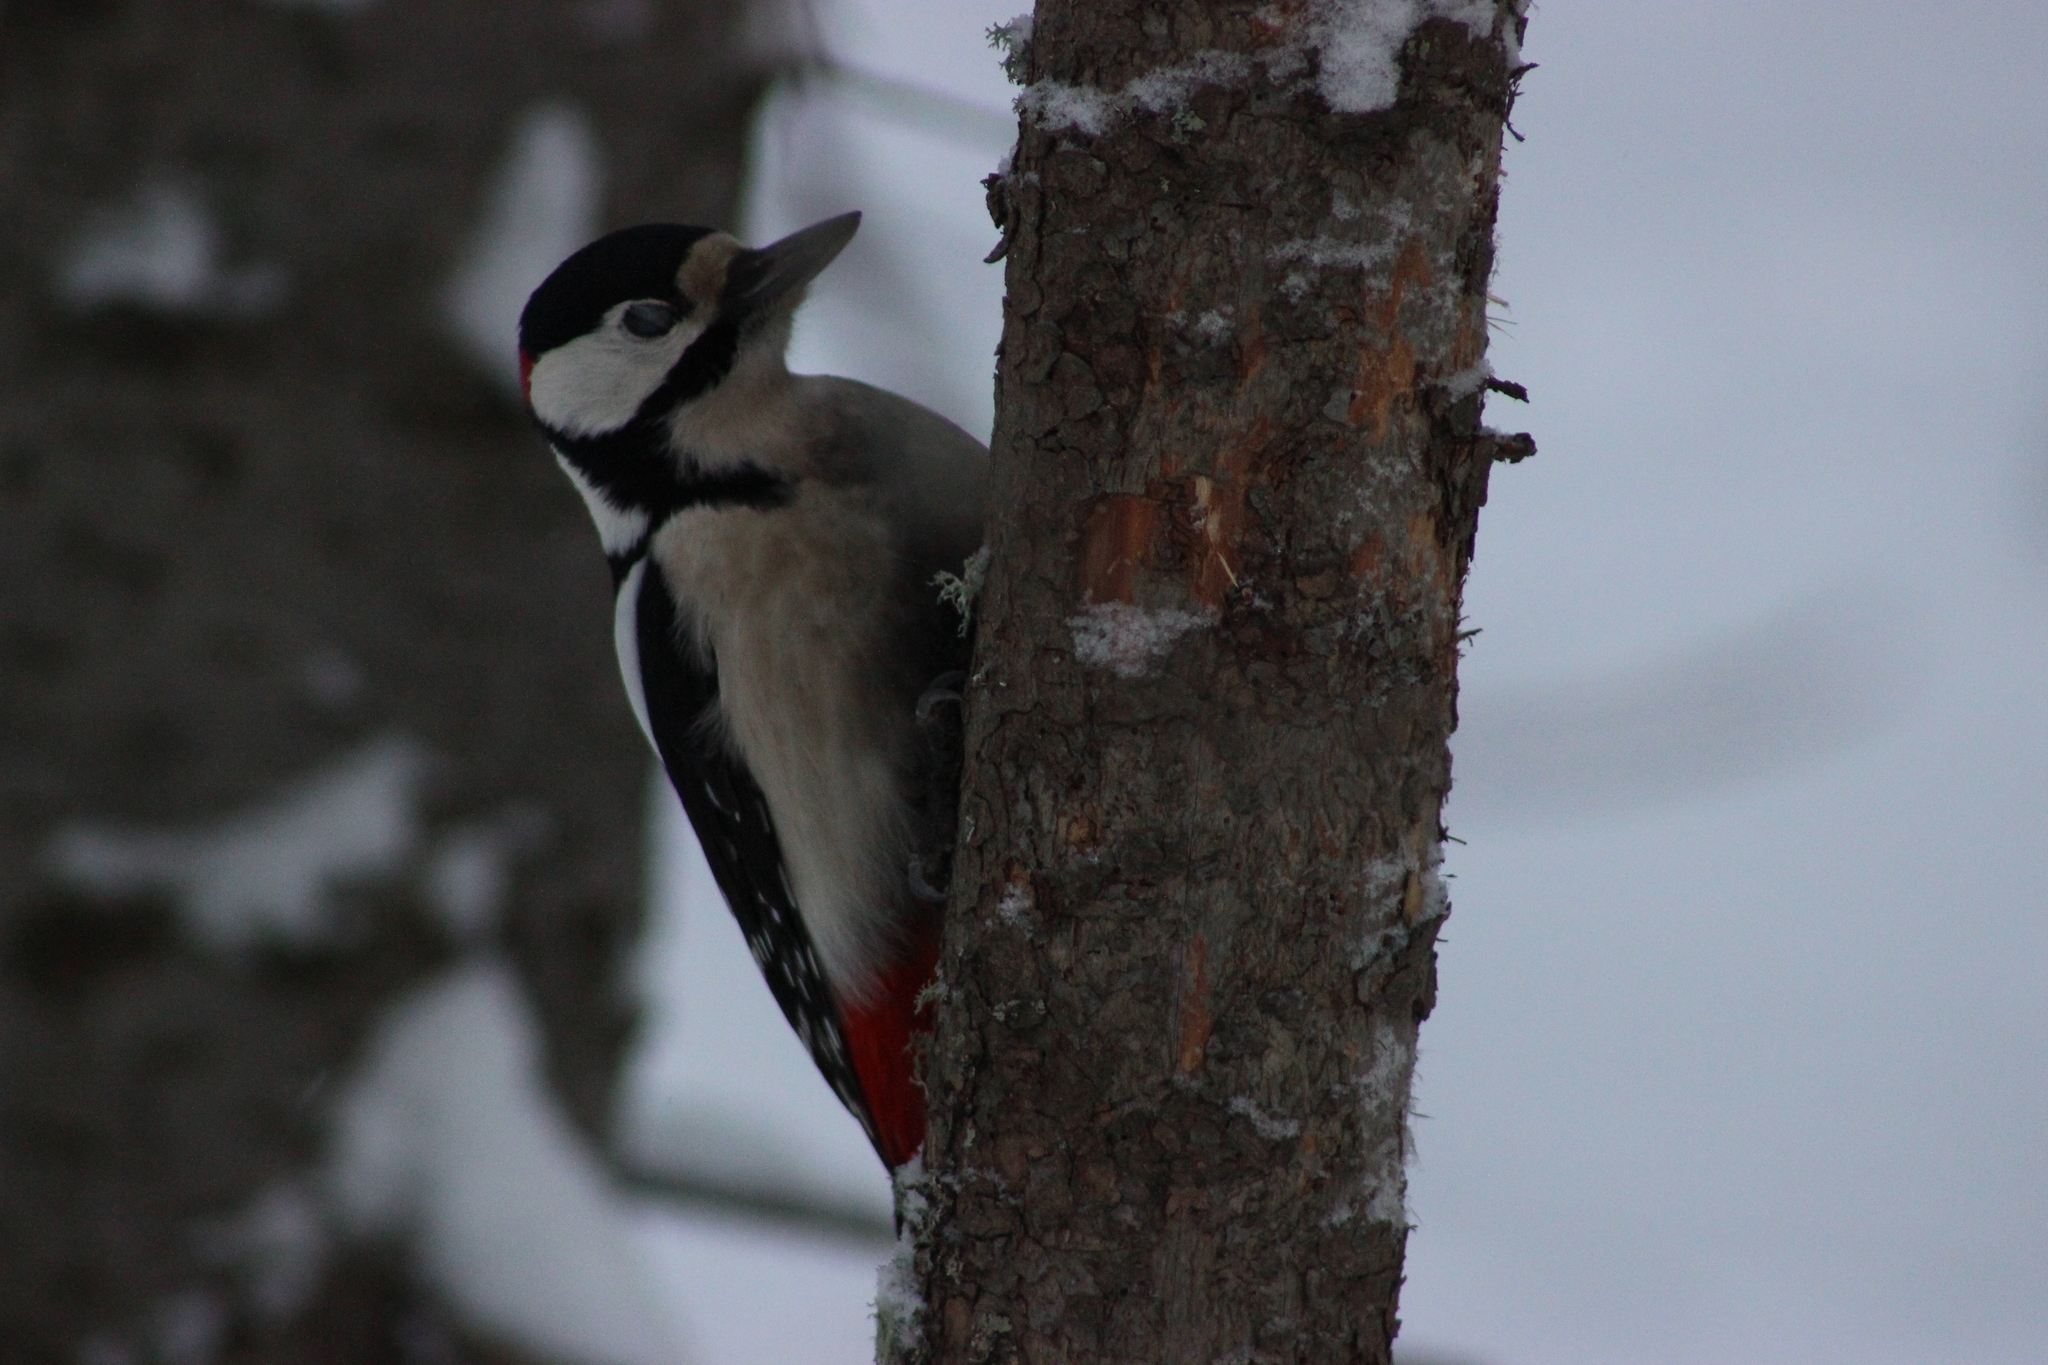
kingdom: Animalia
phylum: Chordata
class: Aves
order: Piciformes
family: Picidae
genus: Dendrocopos
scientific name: Dendrocopos major
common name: Great spotted woodpecker
